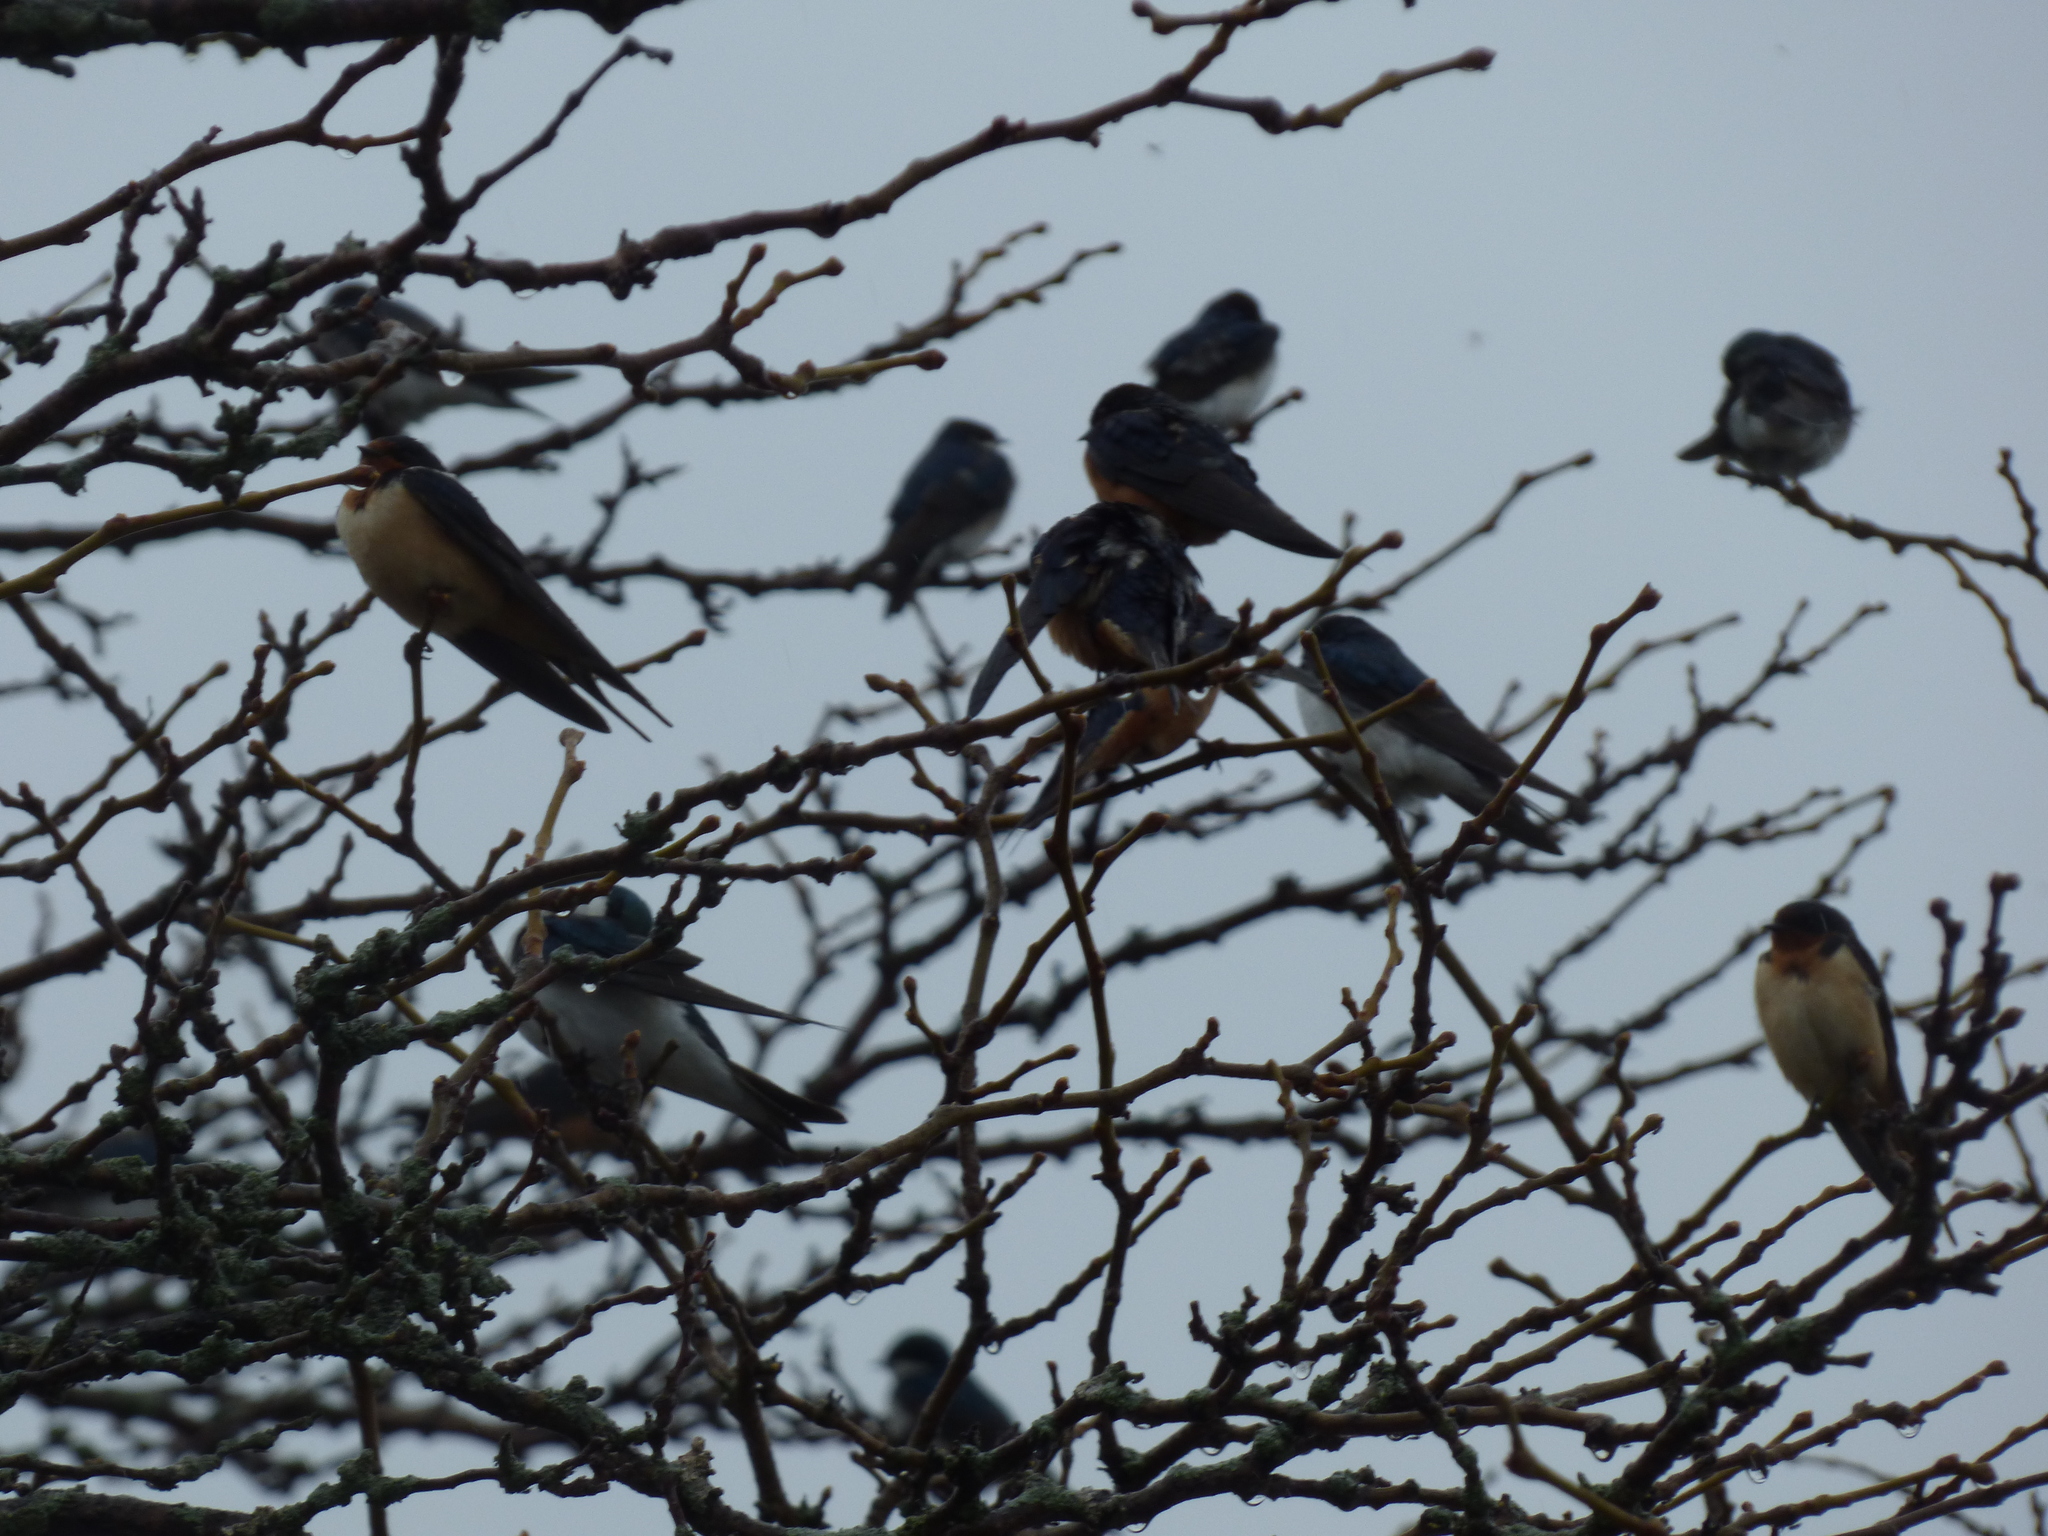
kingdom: Animalia
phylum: Chordata
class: Aves
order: Passeriformes
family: Hirundinidae
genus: Hirundo
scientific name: Hirundo rustica
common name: Barn swallow
